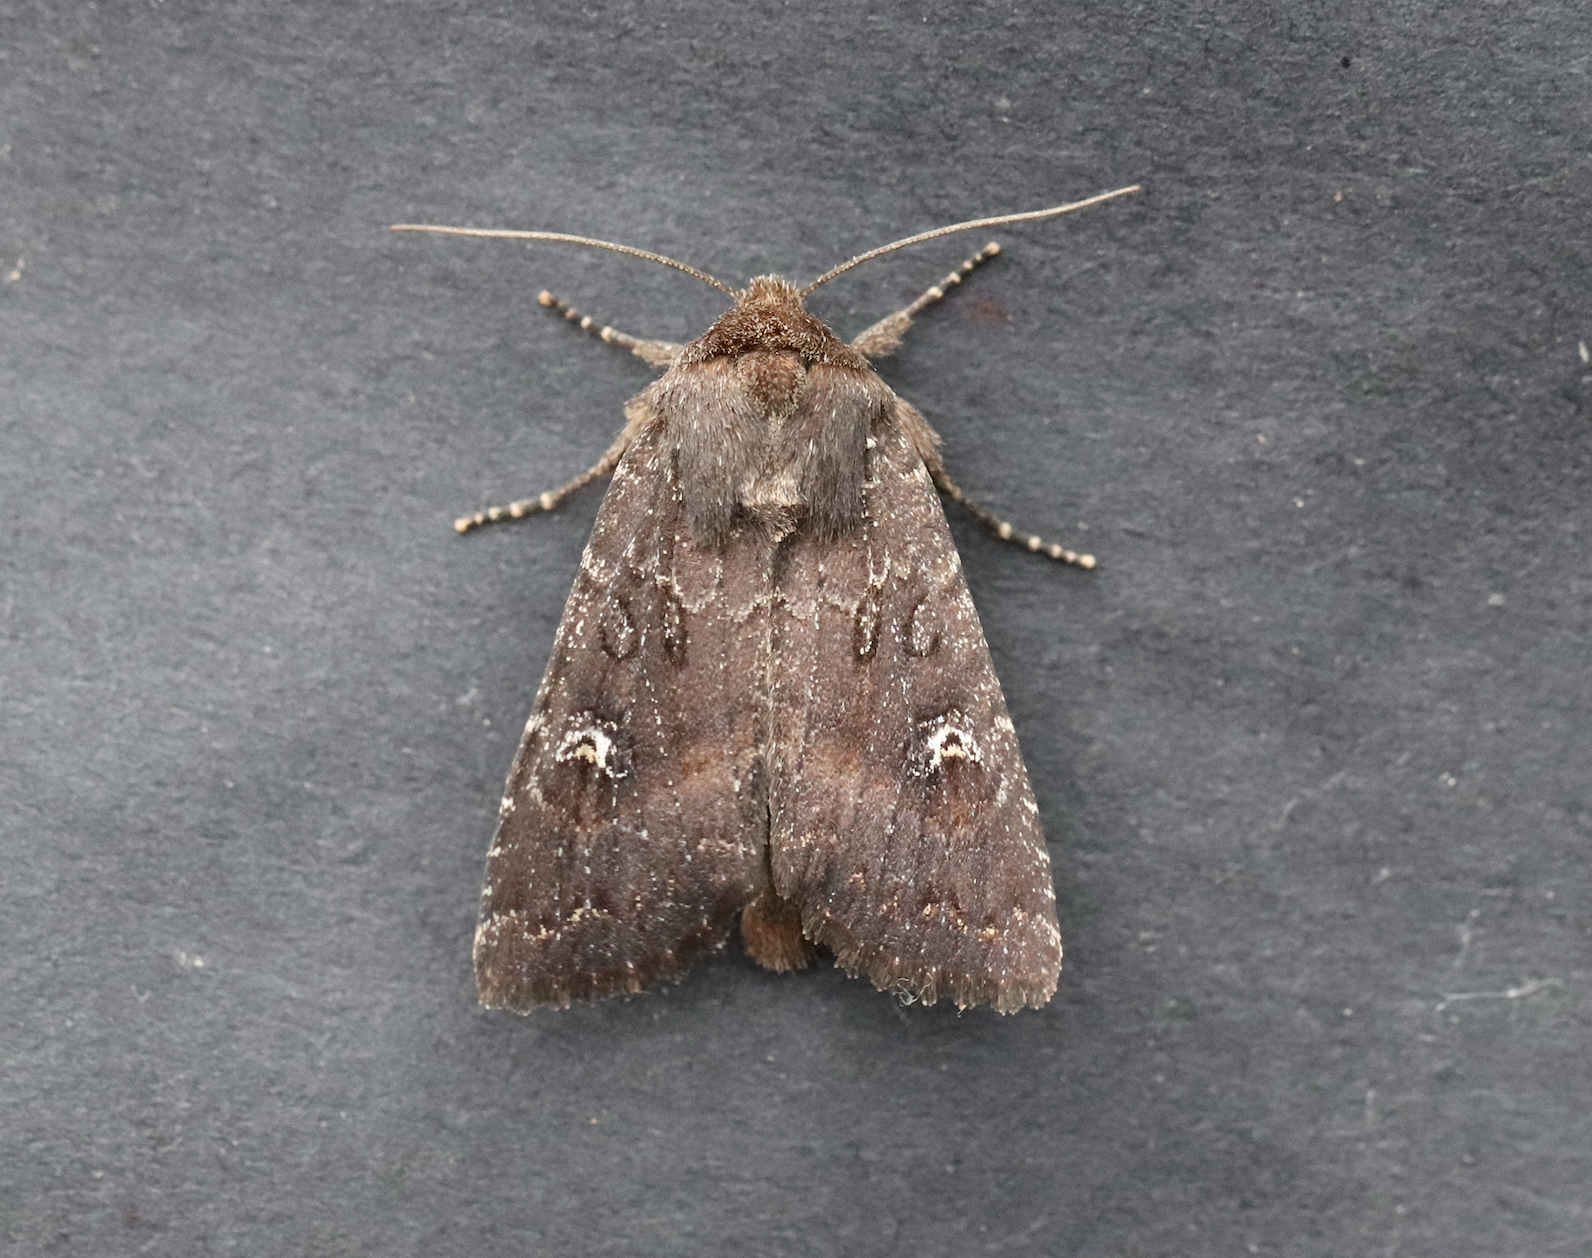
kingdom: Animalia
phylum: Arthropoda
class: Insecta
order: Lepidoptera
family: Noctuidae
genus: Apamea
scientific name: Apamea cogitata
